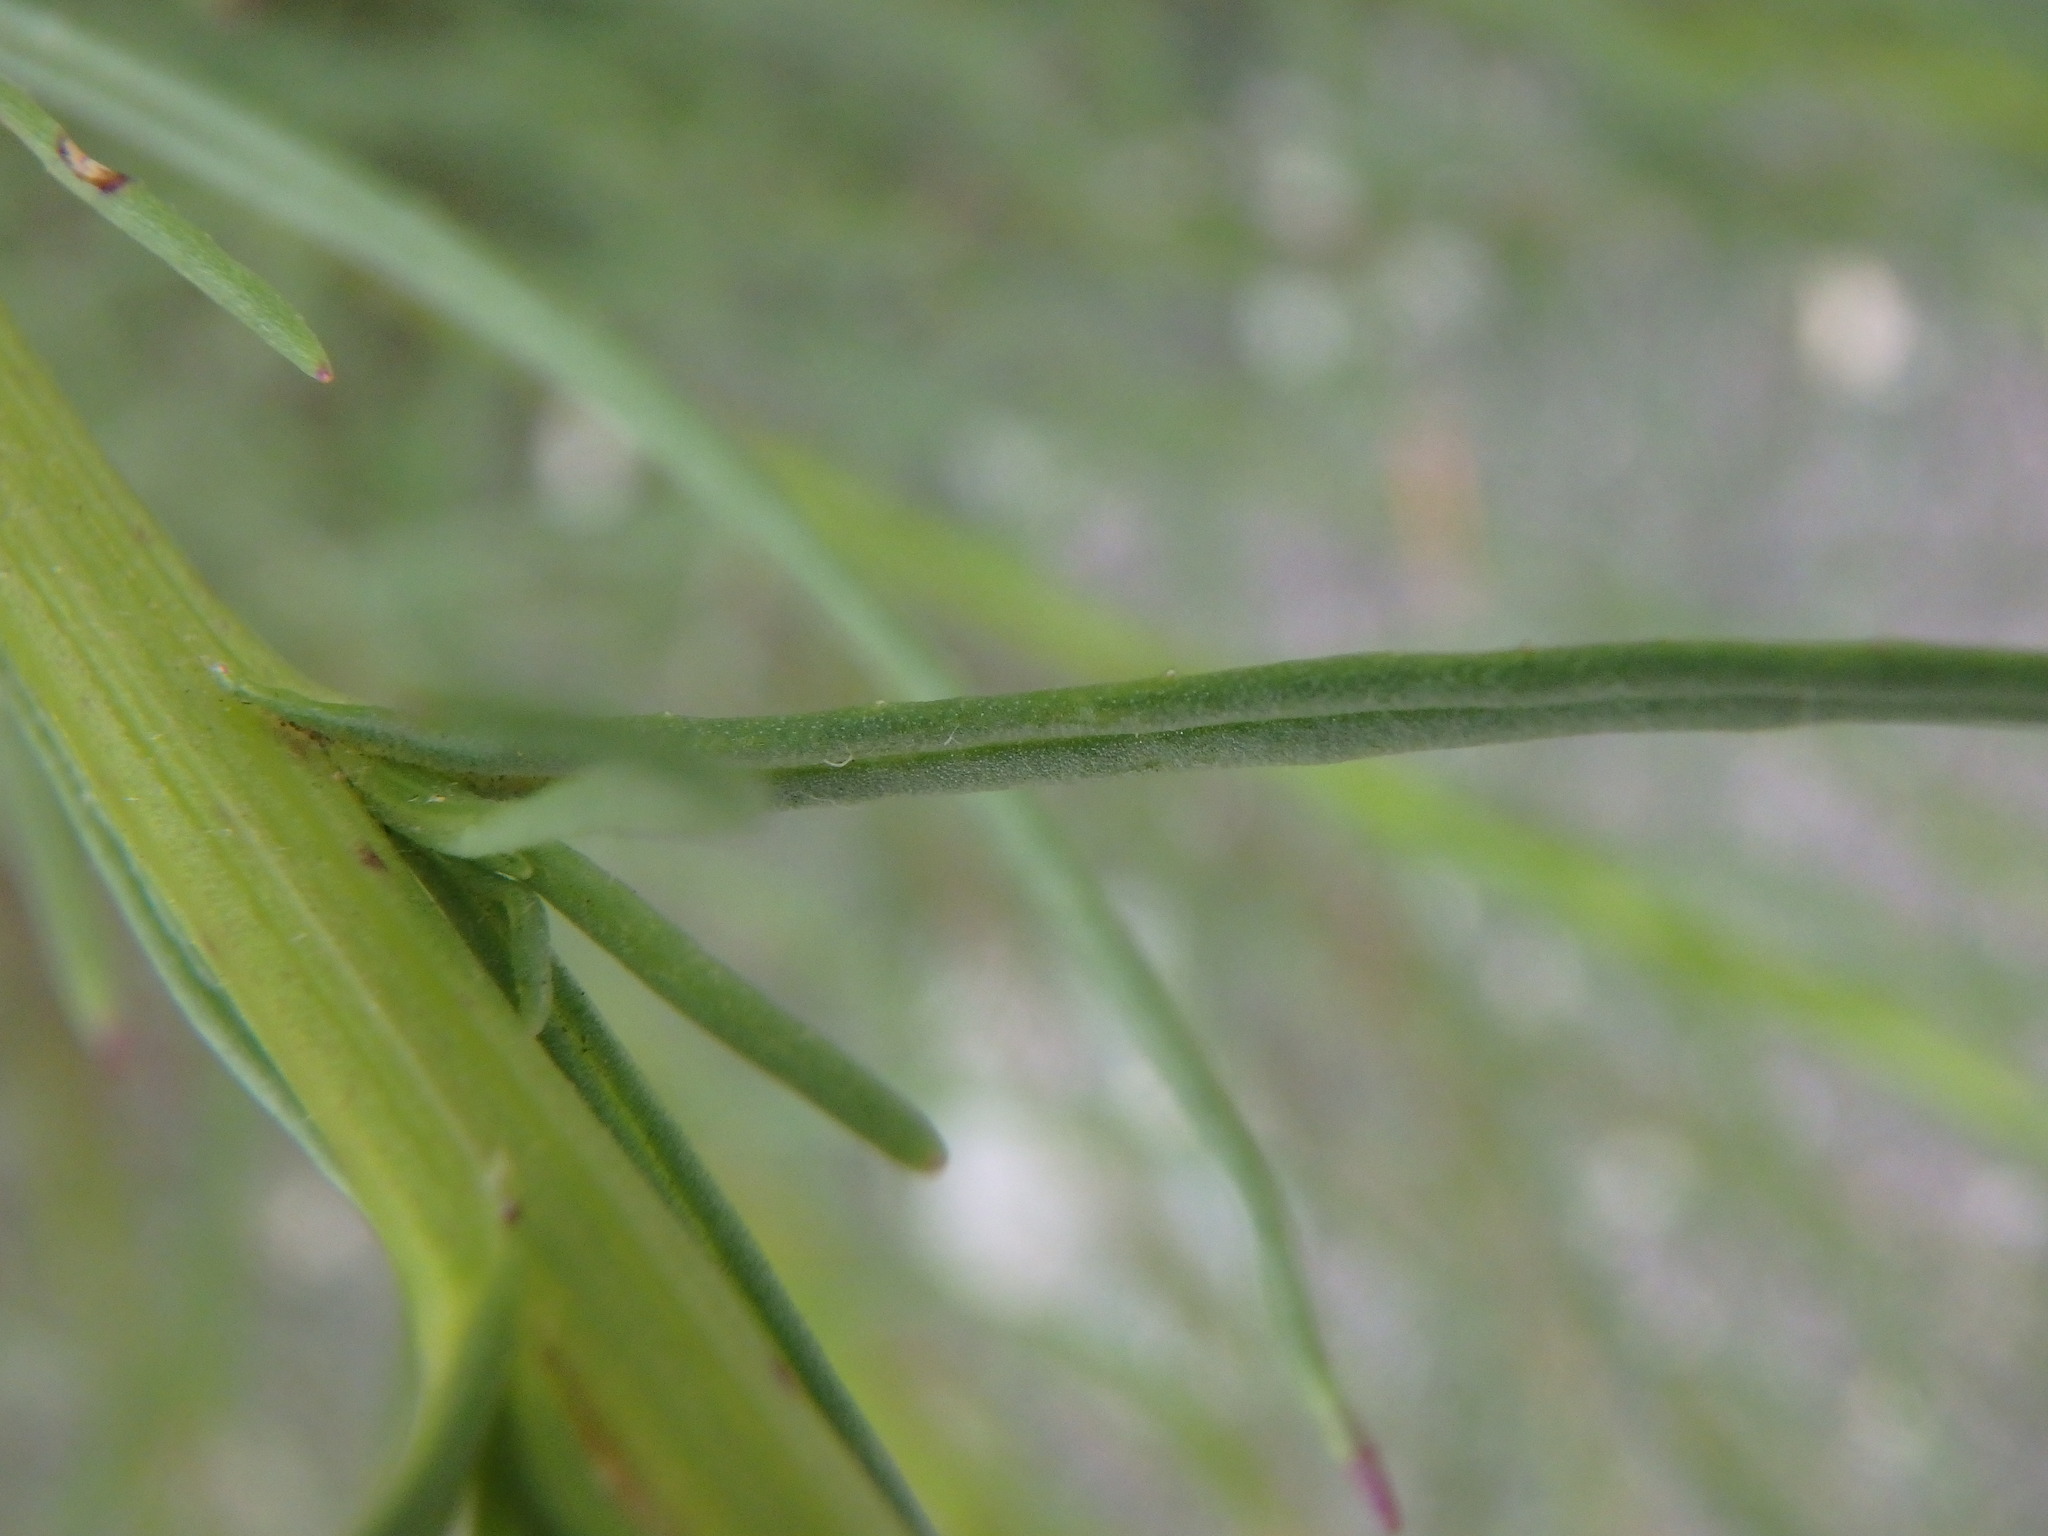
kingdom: Plantae
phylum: Tracheophyta
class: Magnoliopsida
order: Asterales
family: Asteraceae
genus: Senecio
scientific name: Senecio inaequidens
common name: Narrow-leaved ragwort
